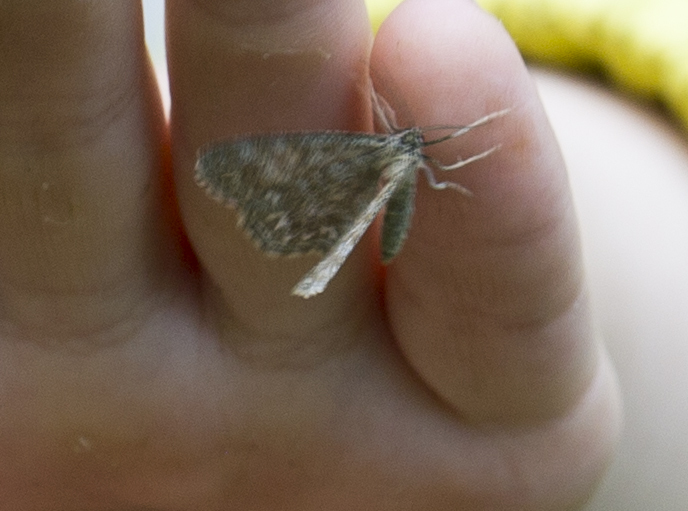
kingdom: Animalia
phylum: Arthropoda
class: Insecta
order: Lepidoptera
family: Geometridae
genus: Scopula
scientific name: Scopula immorata
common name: Lewes wave
